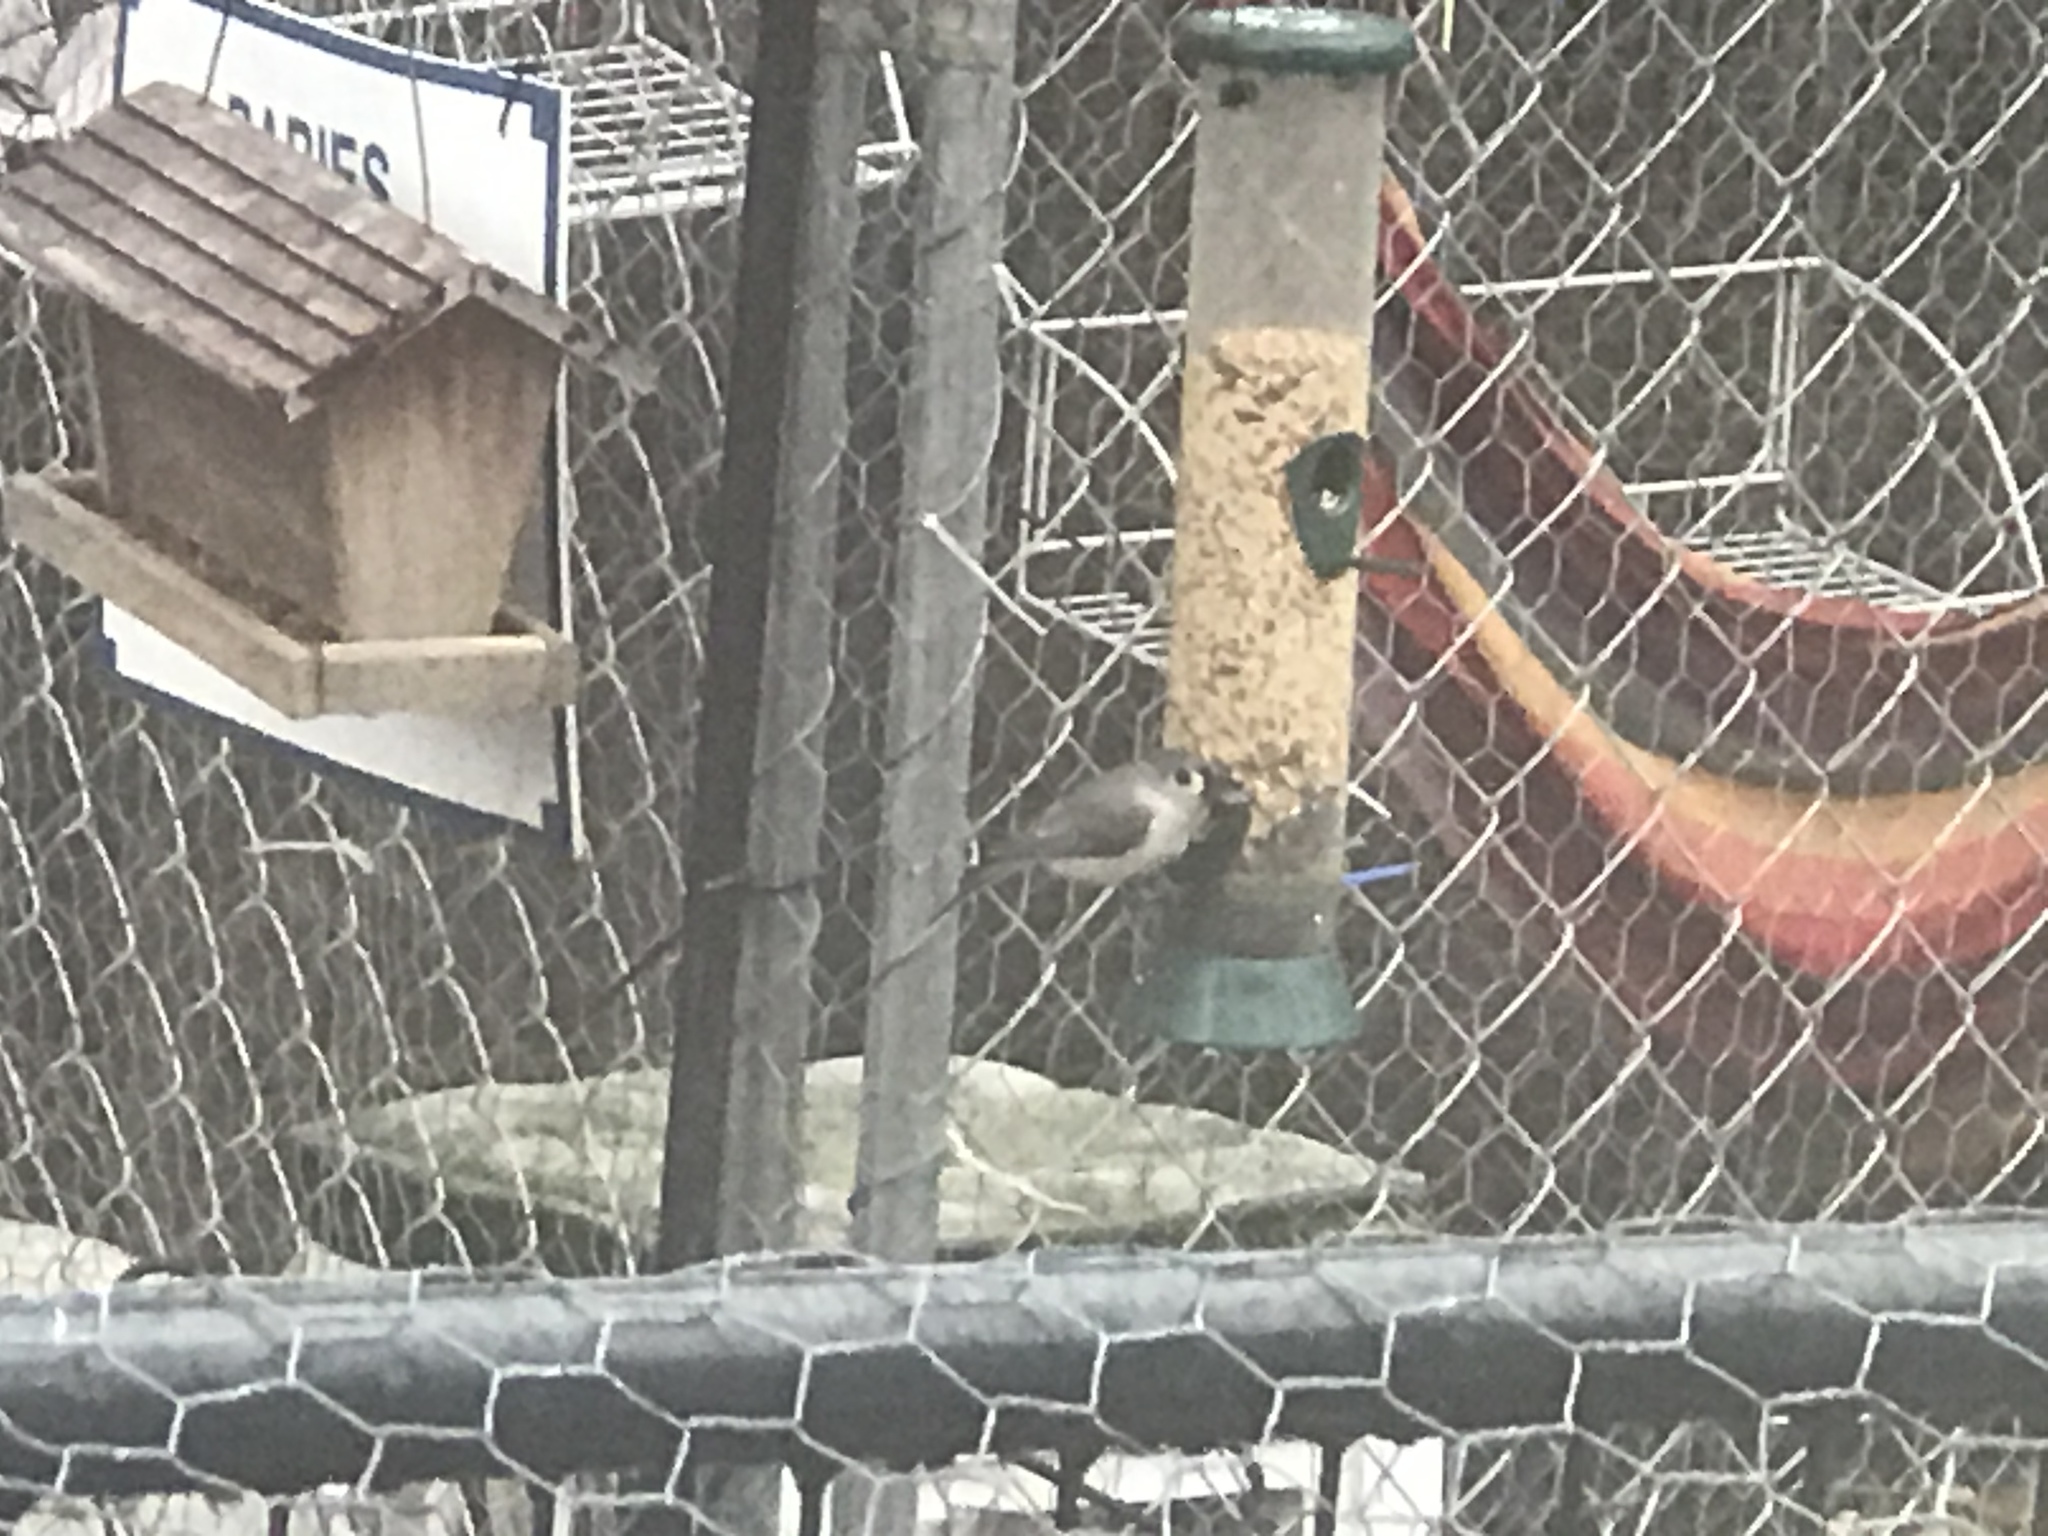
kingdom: Animalia
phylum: Chordata
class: Aves
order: Passeriformes
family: Paridae
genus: Baeolophus
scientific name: Baeolophus bicolor
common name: Tufted titmouse
